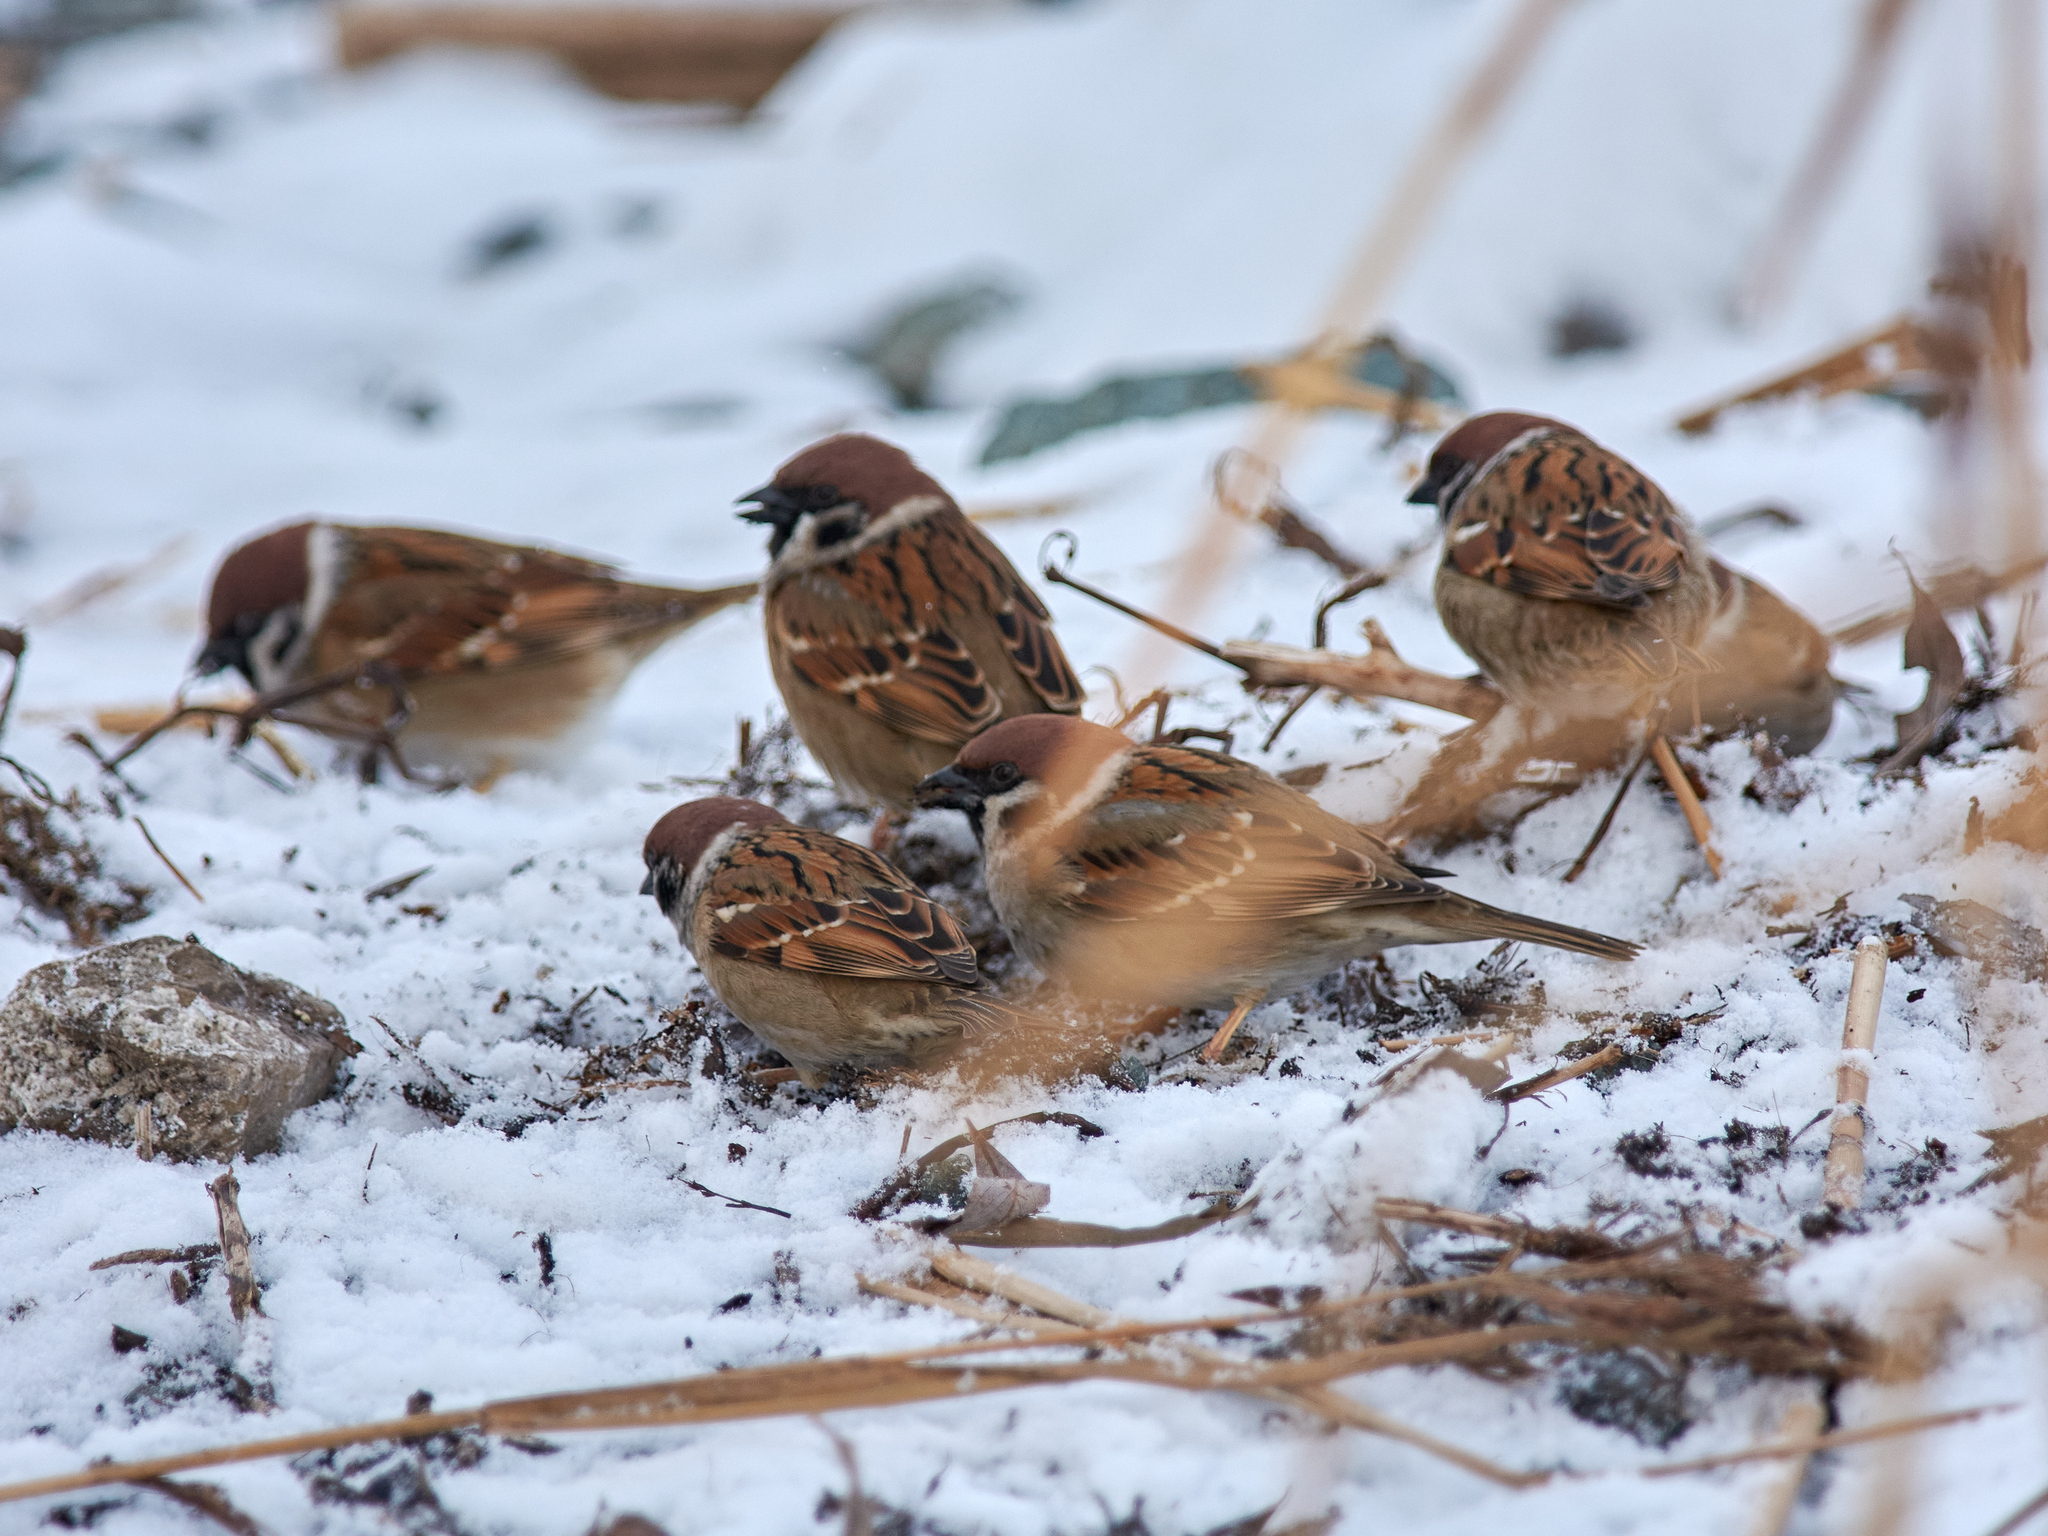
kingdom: Animalia
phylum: Chordata
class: Aves
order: Passeriformes
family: Passeridae
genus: Passer
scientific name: Passer montanus
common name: Eurasian tree sparrow
